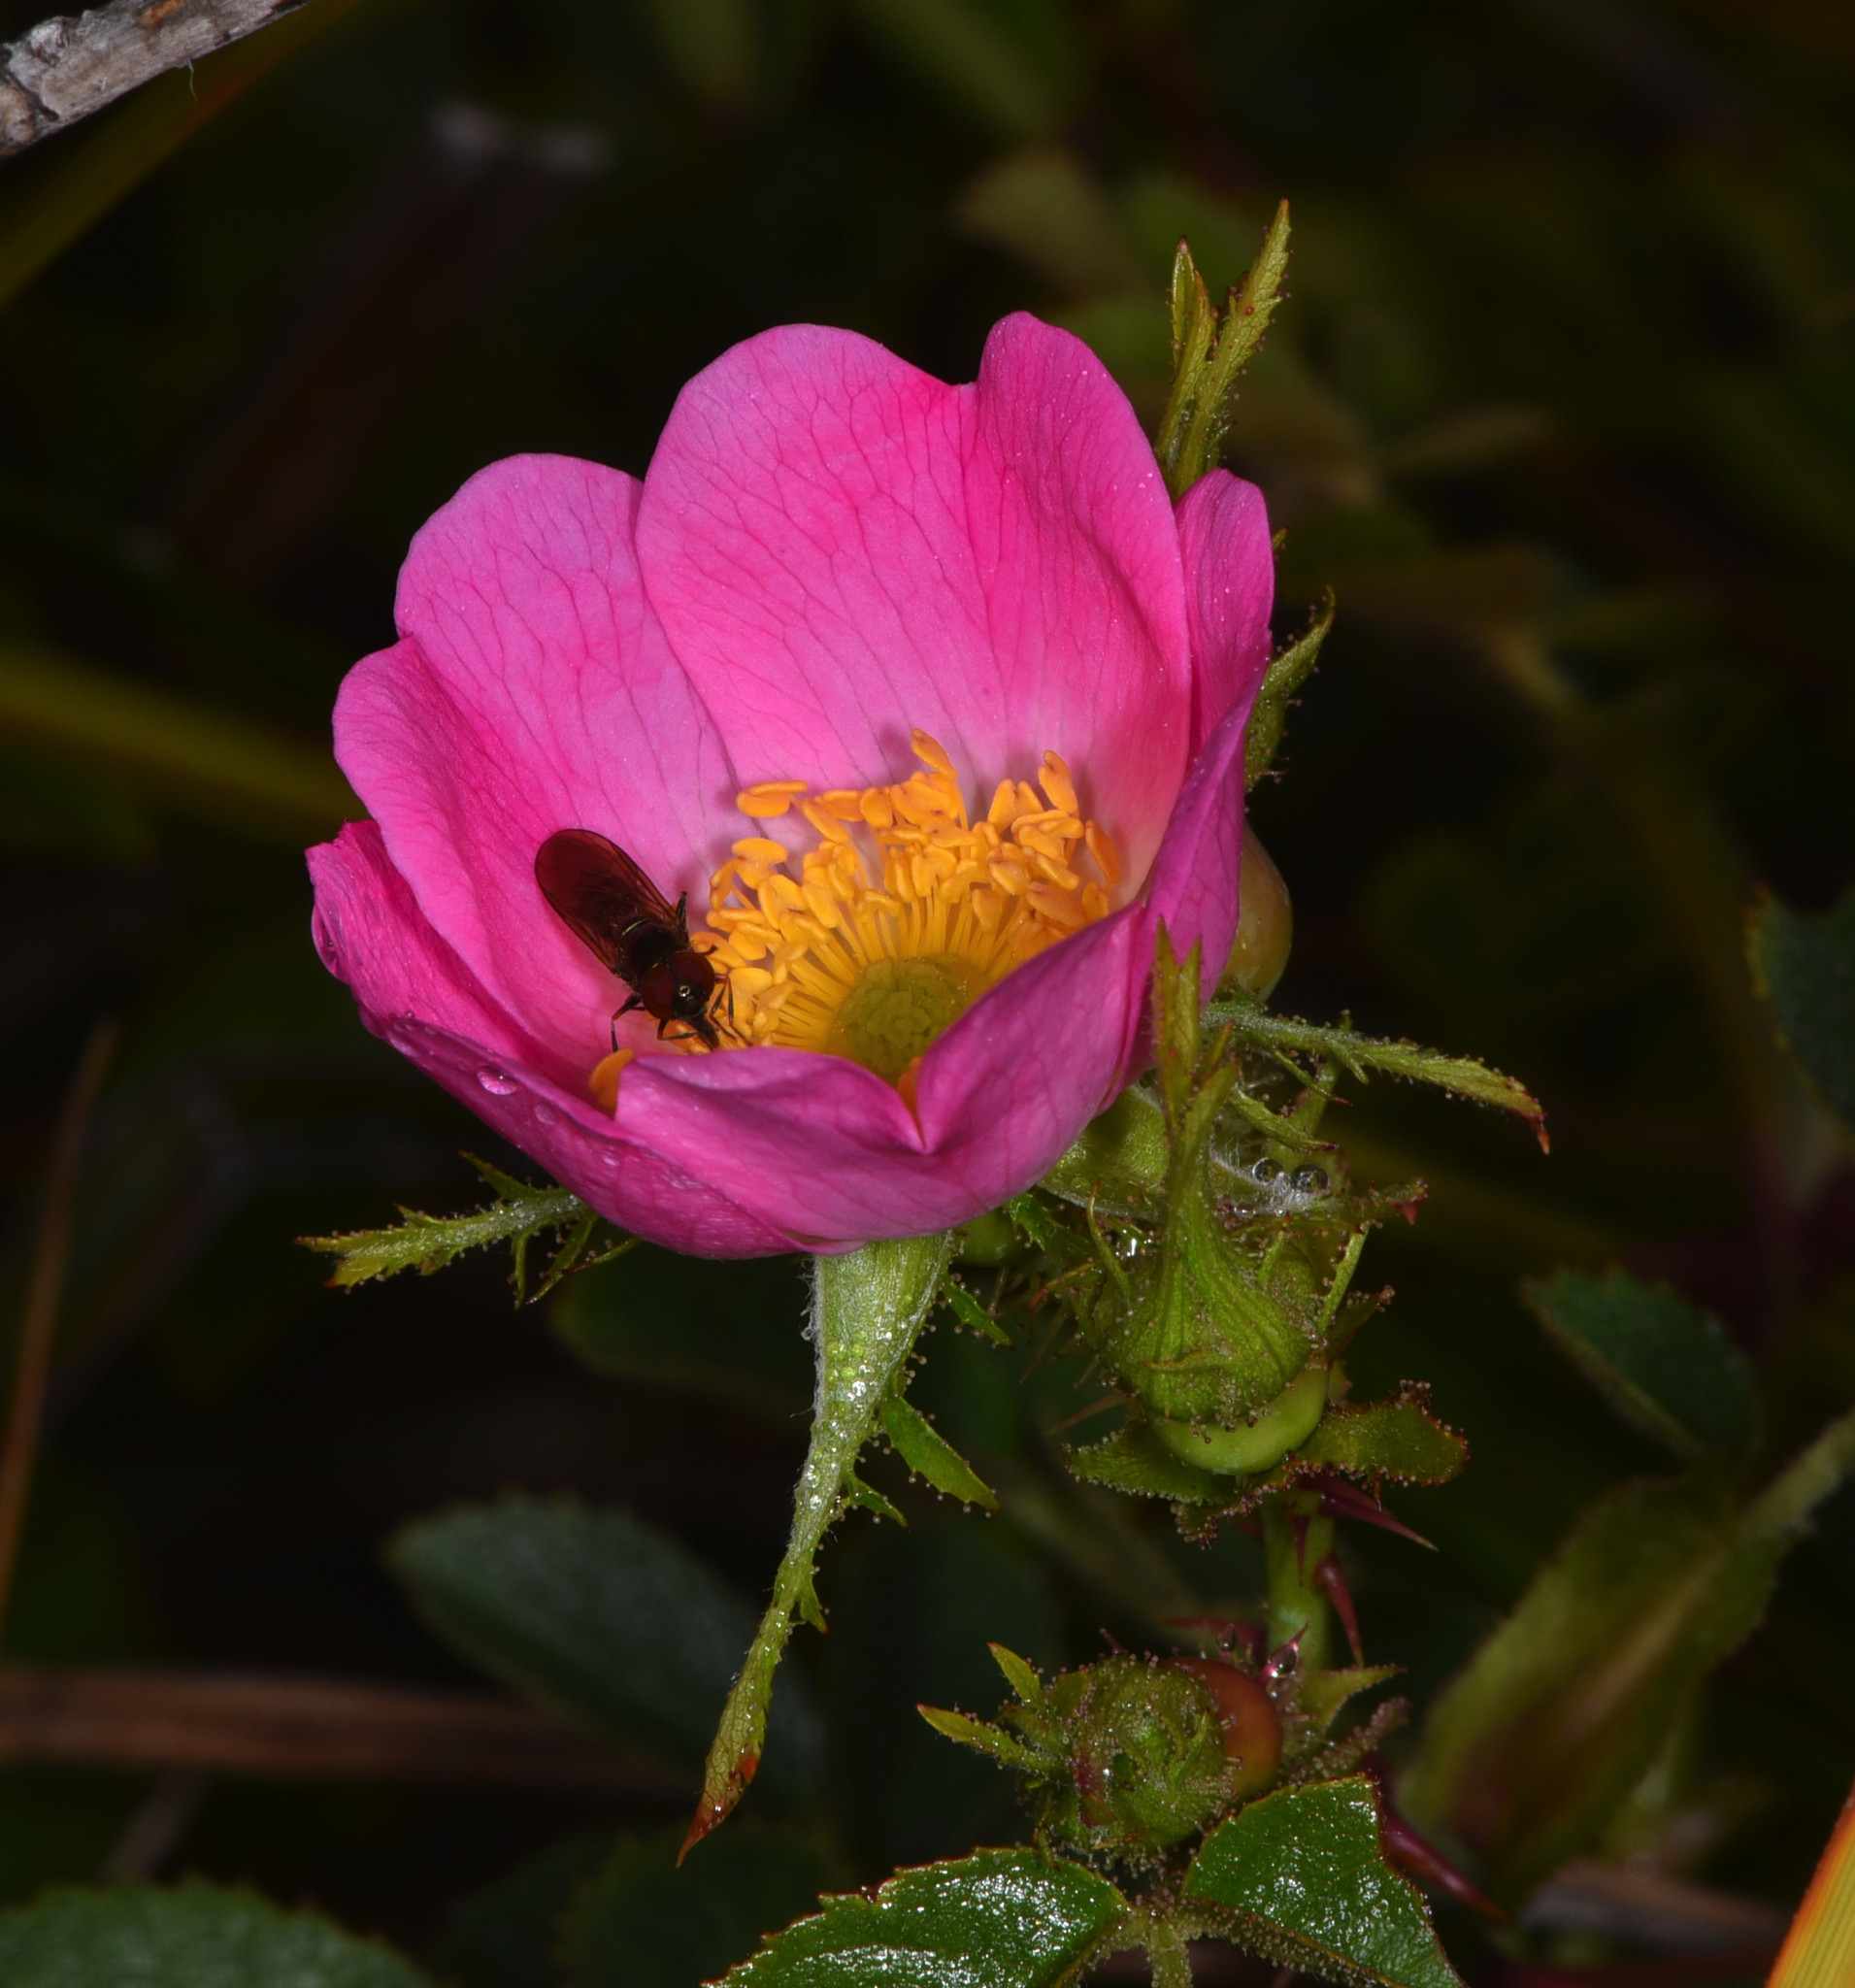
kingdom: Plantae
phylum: Tracheophyta
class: Magnoliopsida
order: Rosales
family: Rosaceae
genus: Rosa
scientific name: Rosa rubiginosa
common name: Sweet-briar
